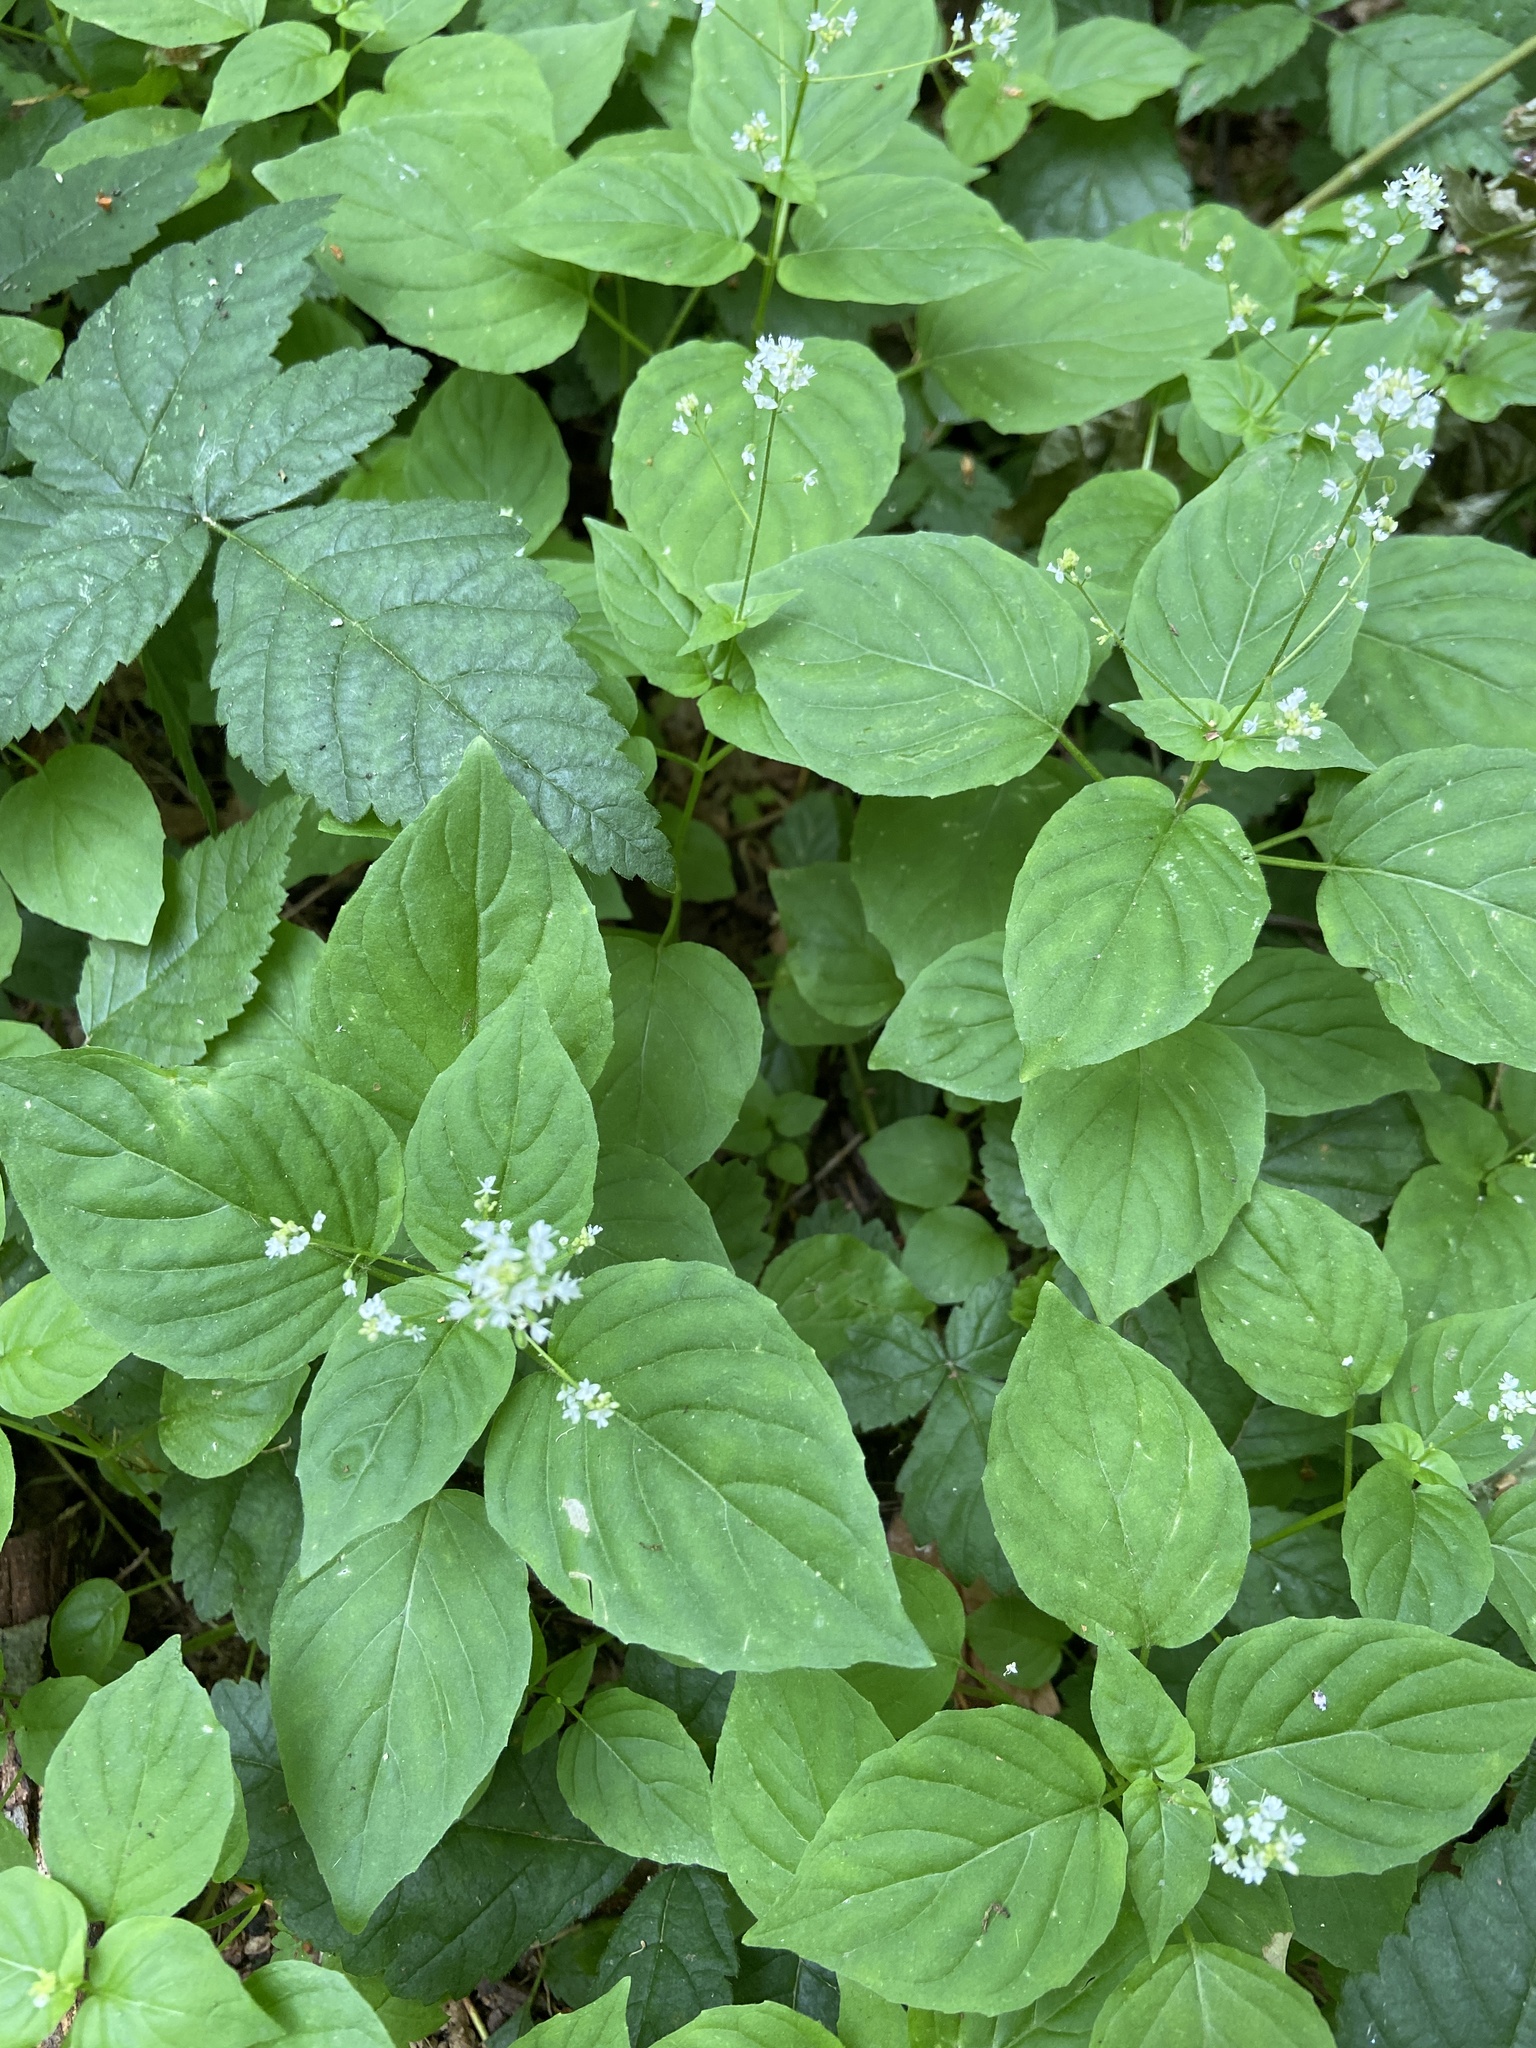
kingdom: Plantae
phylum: Tracheophyta
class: Magnoliopsida
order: Myrtales
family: Onagraceae
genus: Circaea
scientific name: Circaea alpina
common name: Alpine enchanter's-nightshade
